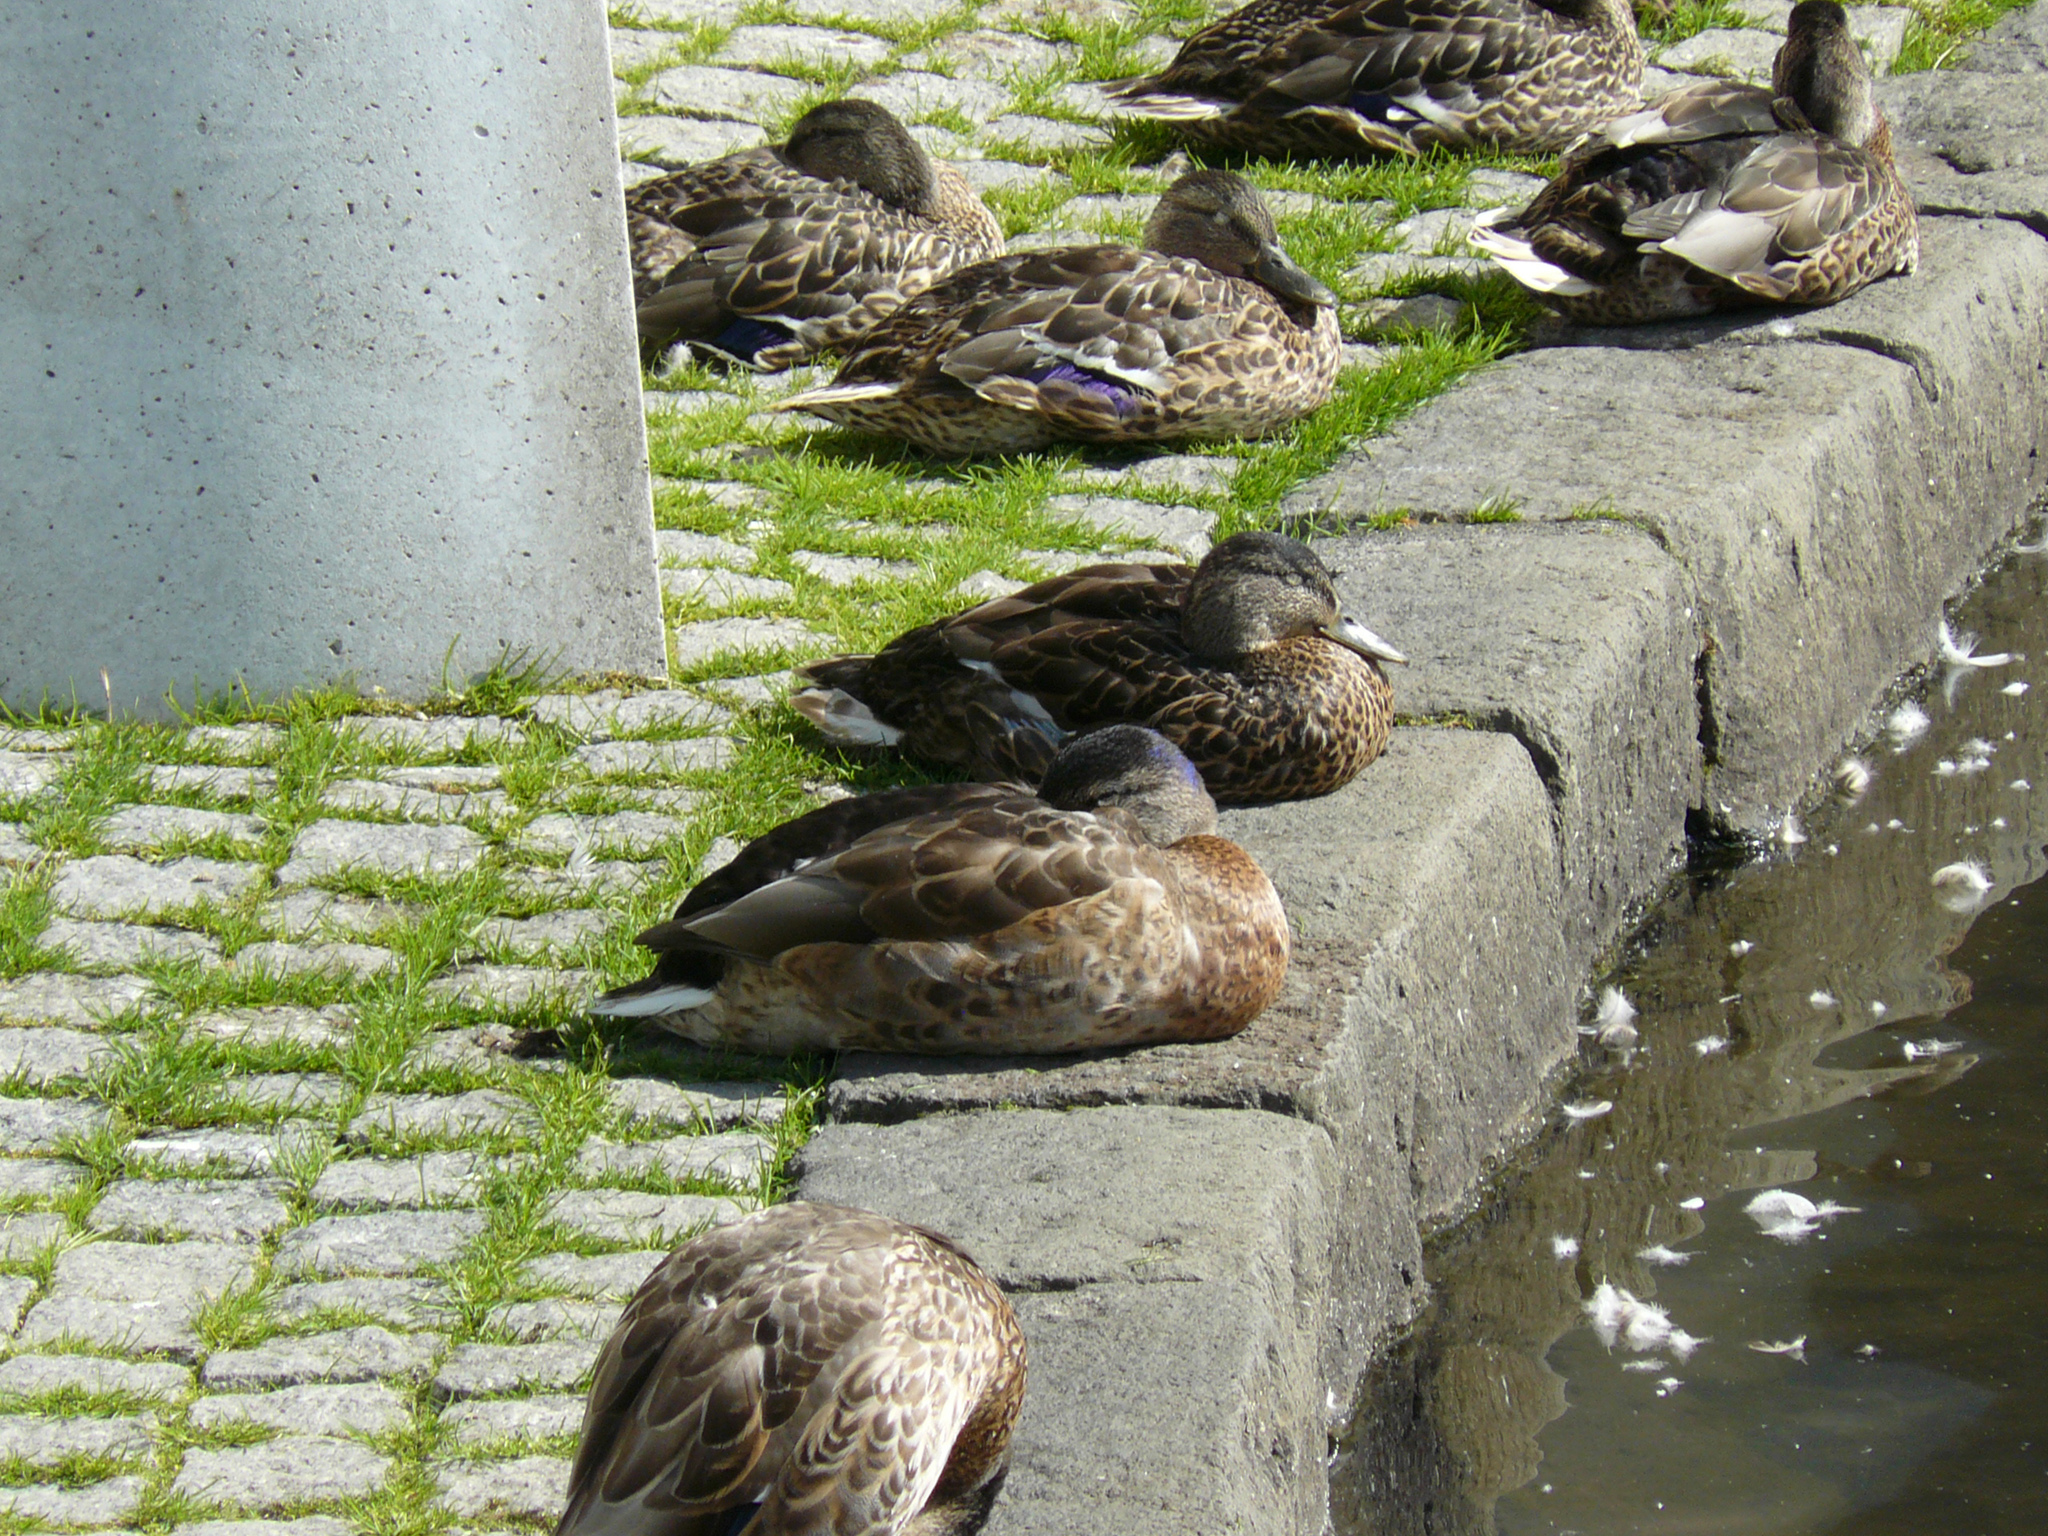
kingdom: Animalia
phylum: Chordata
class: Aves
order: Anseriformes
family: Anatidae
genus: Anas
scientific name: Anas platyrhynchos
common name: Mallard
